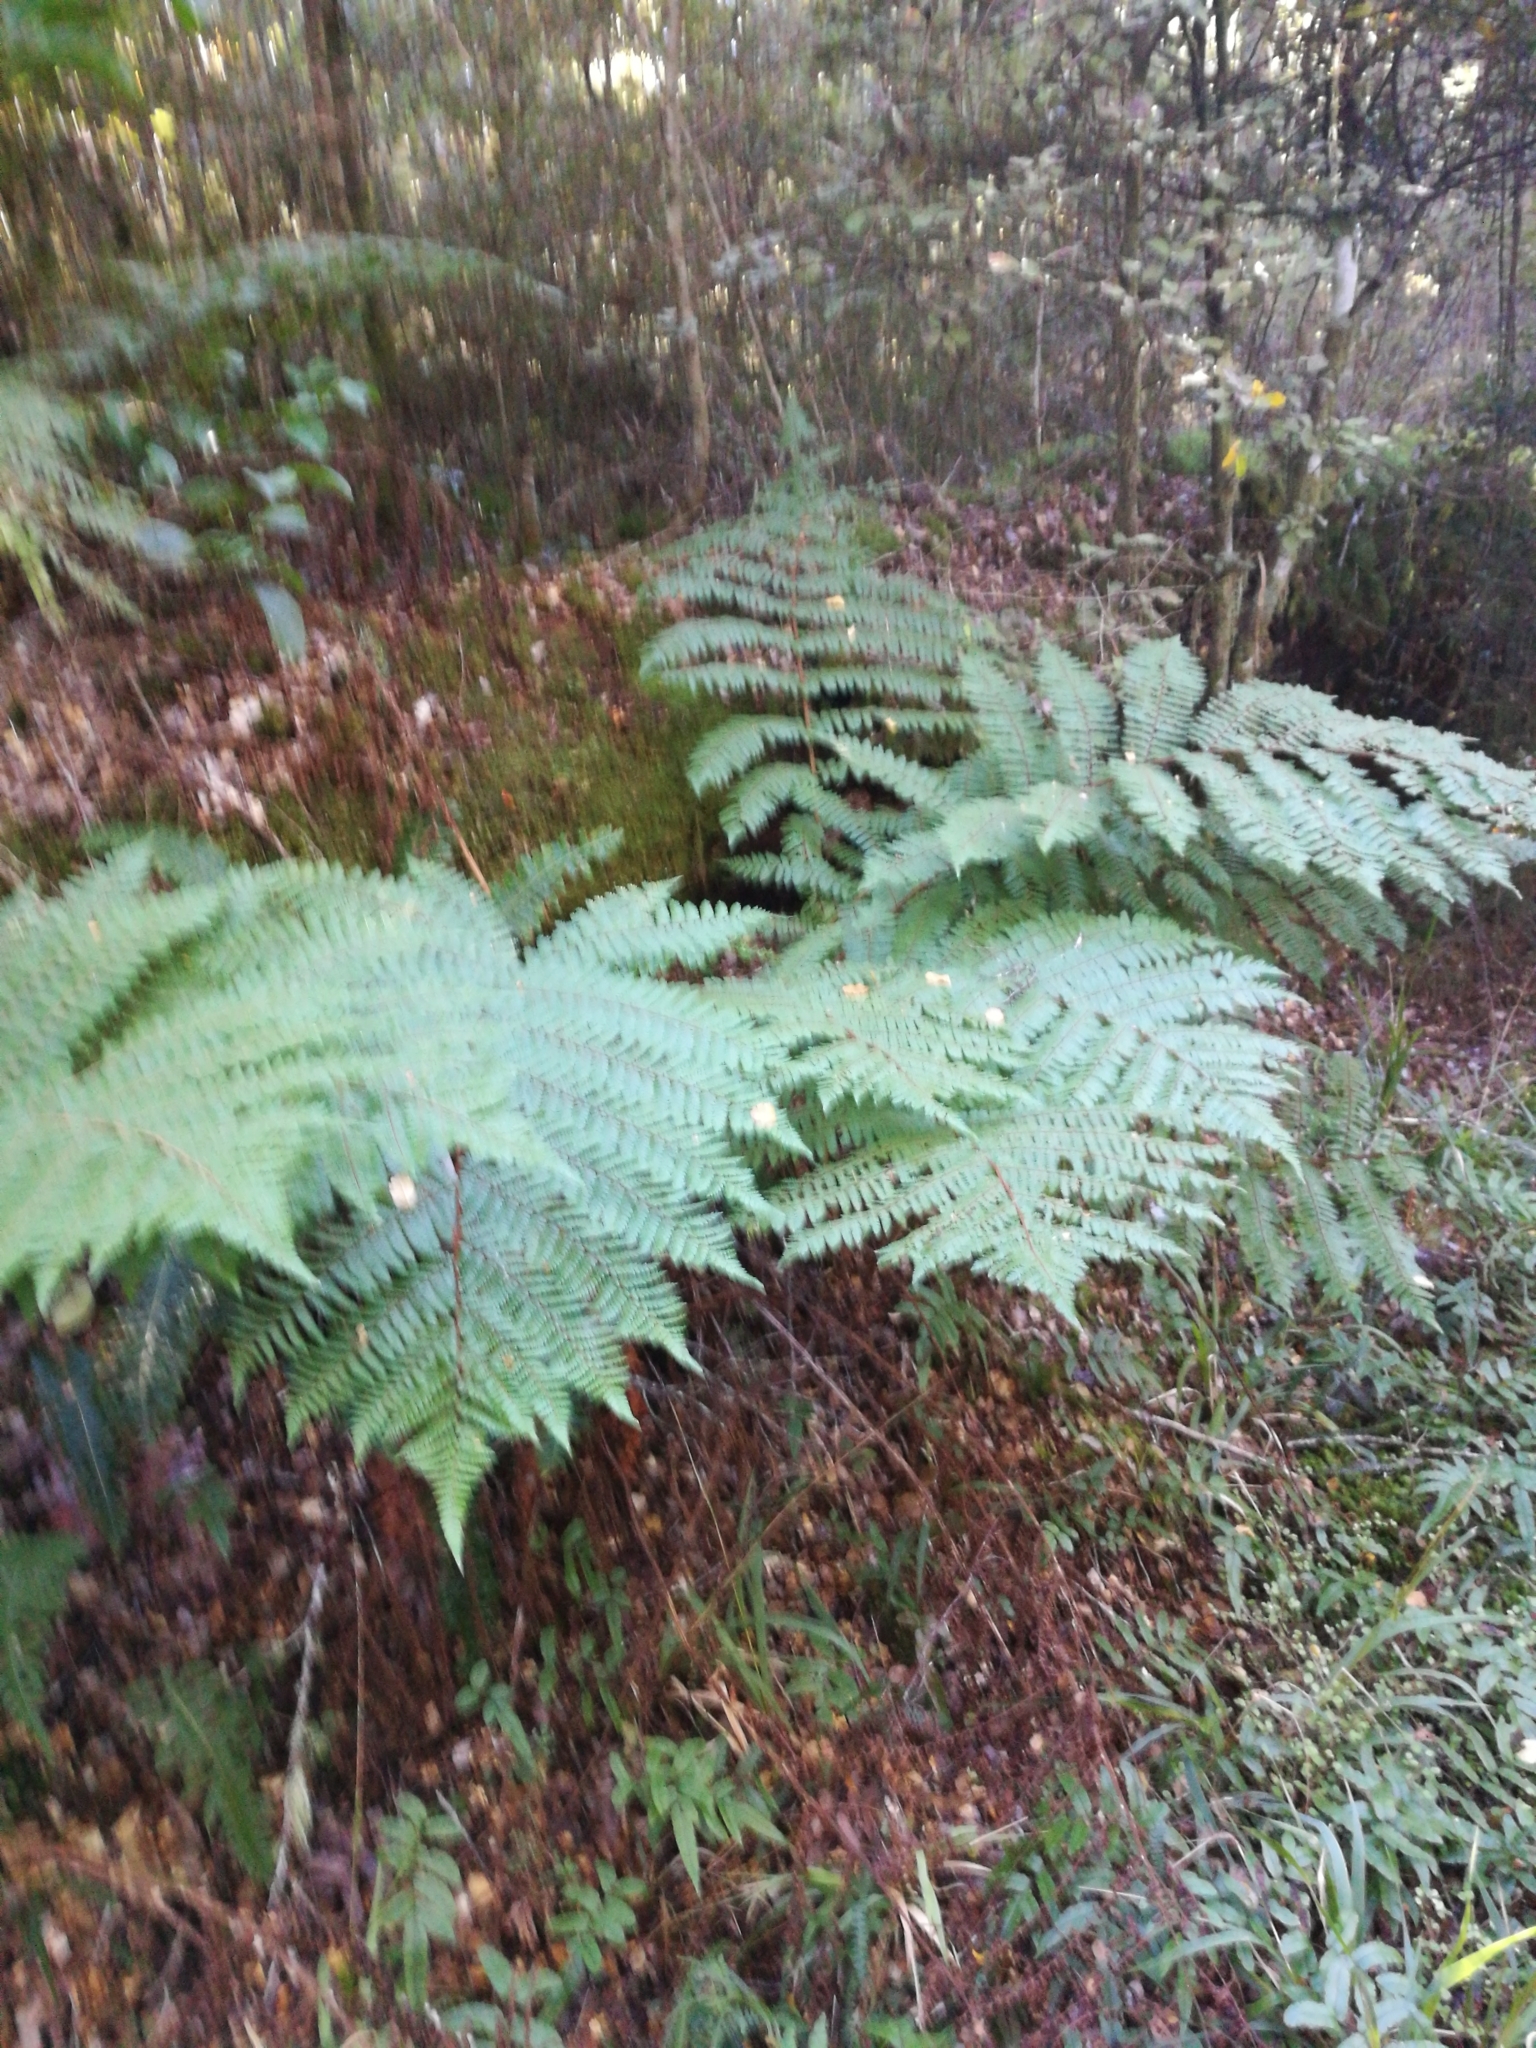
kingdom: Plantae
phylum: Tracheophyta
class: Polypodiopsida
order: Cyatheales
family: Cyatheaceae
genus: Alsophila
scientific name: Alsophila colensoi
